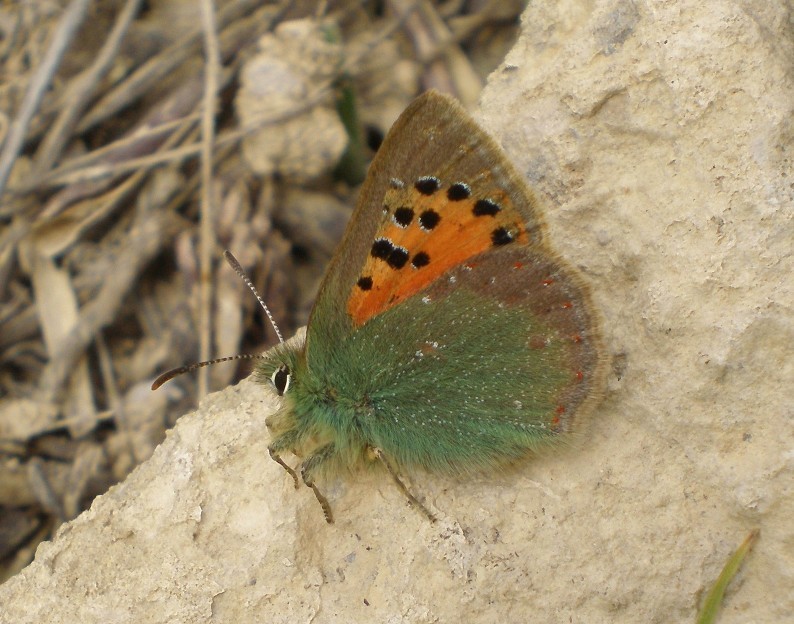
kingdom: Animalia
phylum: Arthropoda
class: Insecta
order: Lepidoptera
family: Lycaenidae
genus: Tomares
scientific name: Tomares ballus
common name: Provence hairstreak
